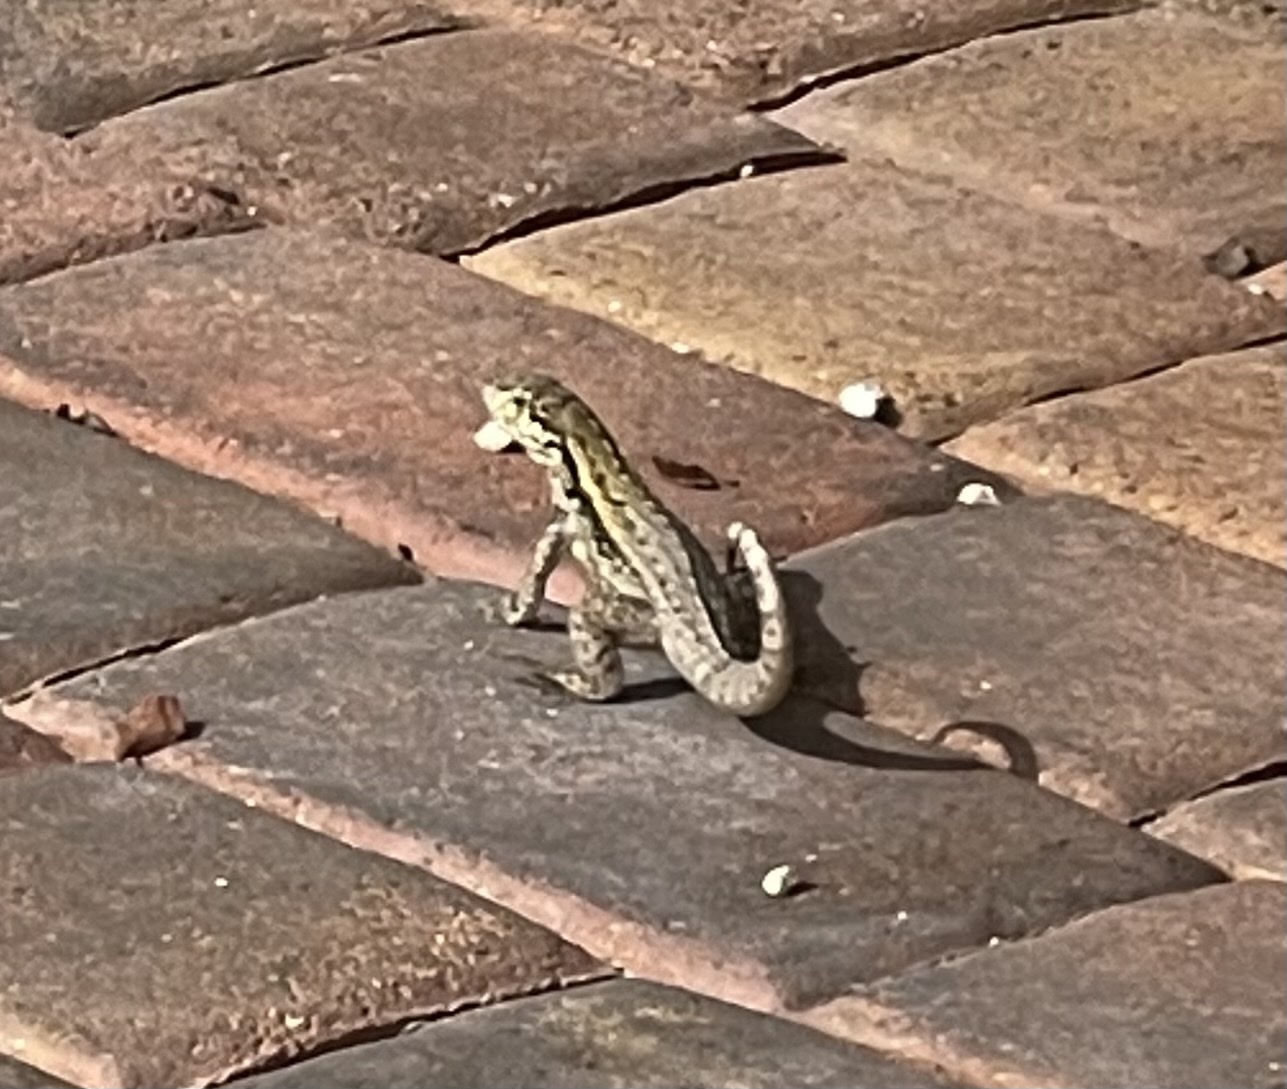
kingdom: Animalia
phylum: Chordata
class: Squamata
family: Leiocephalidae
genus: Leiocephalus
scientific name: Leiocephalus carinatus
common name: Northern curly-tailed lizard
